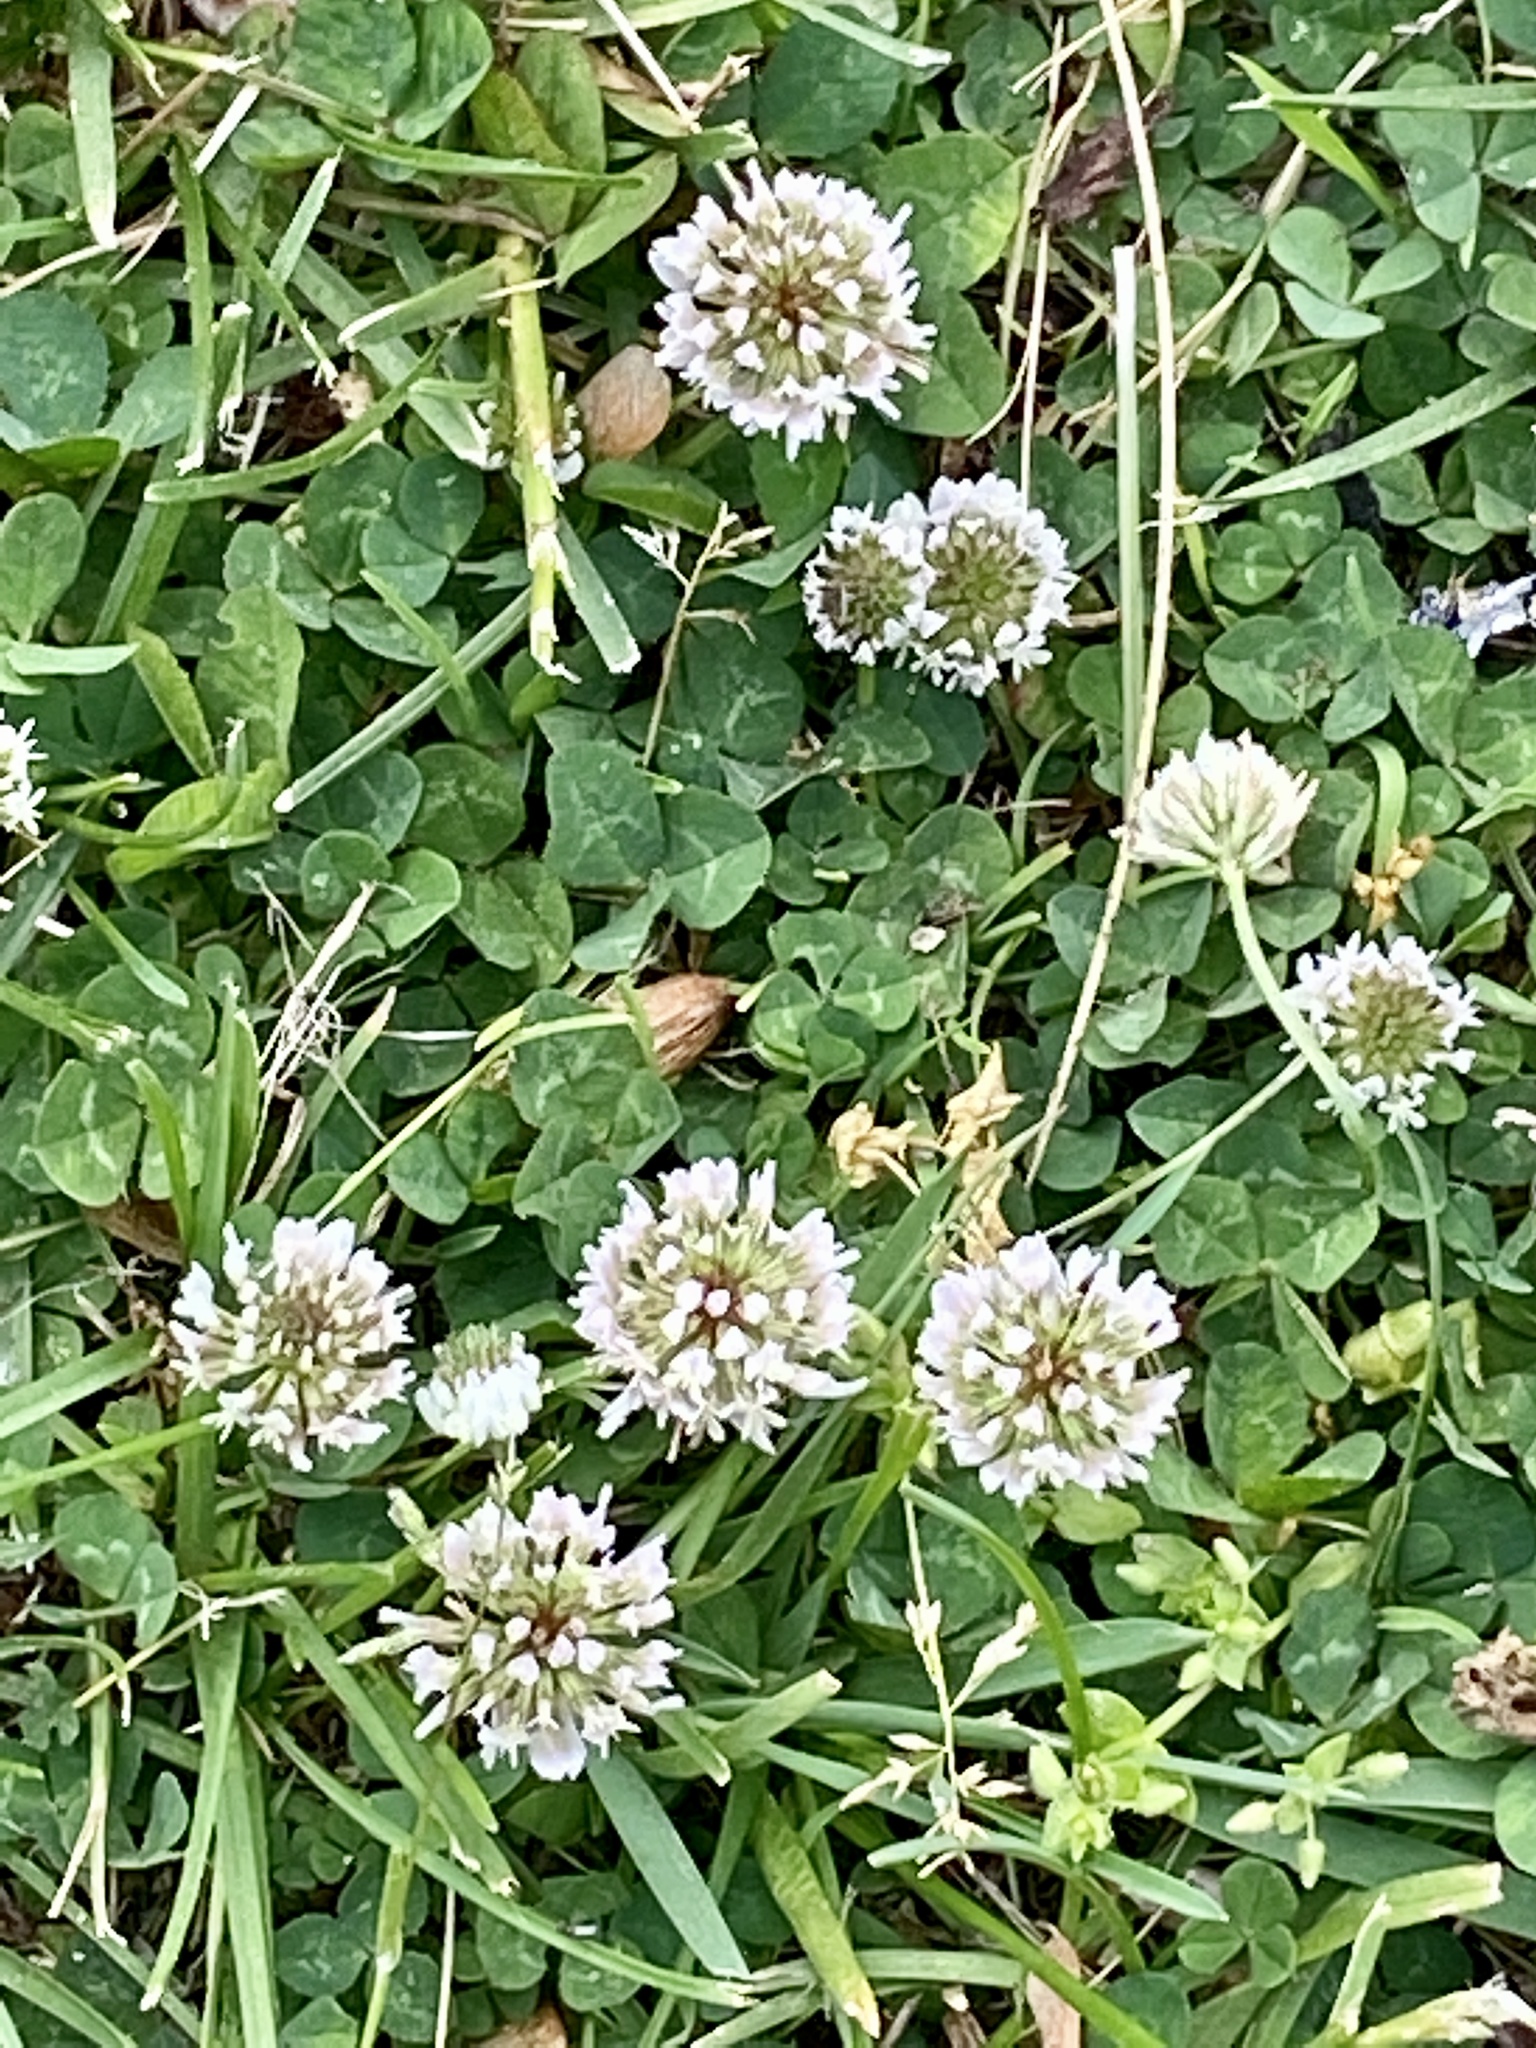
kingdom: Plantae
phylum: Tracheophyta
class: Magnoliopsida
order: Fabales
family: Fabaceae
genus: Trifolium
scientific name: Trifolium repens
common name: White clover
